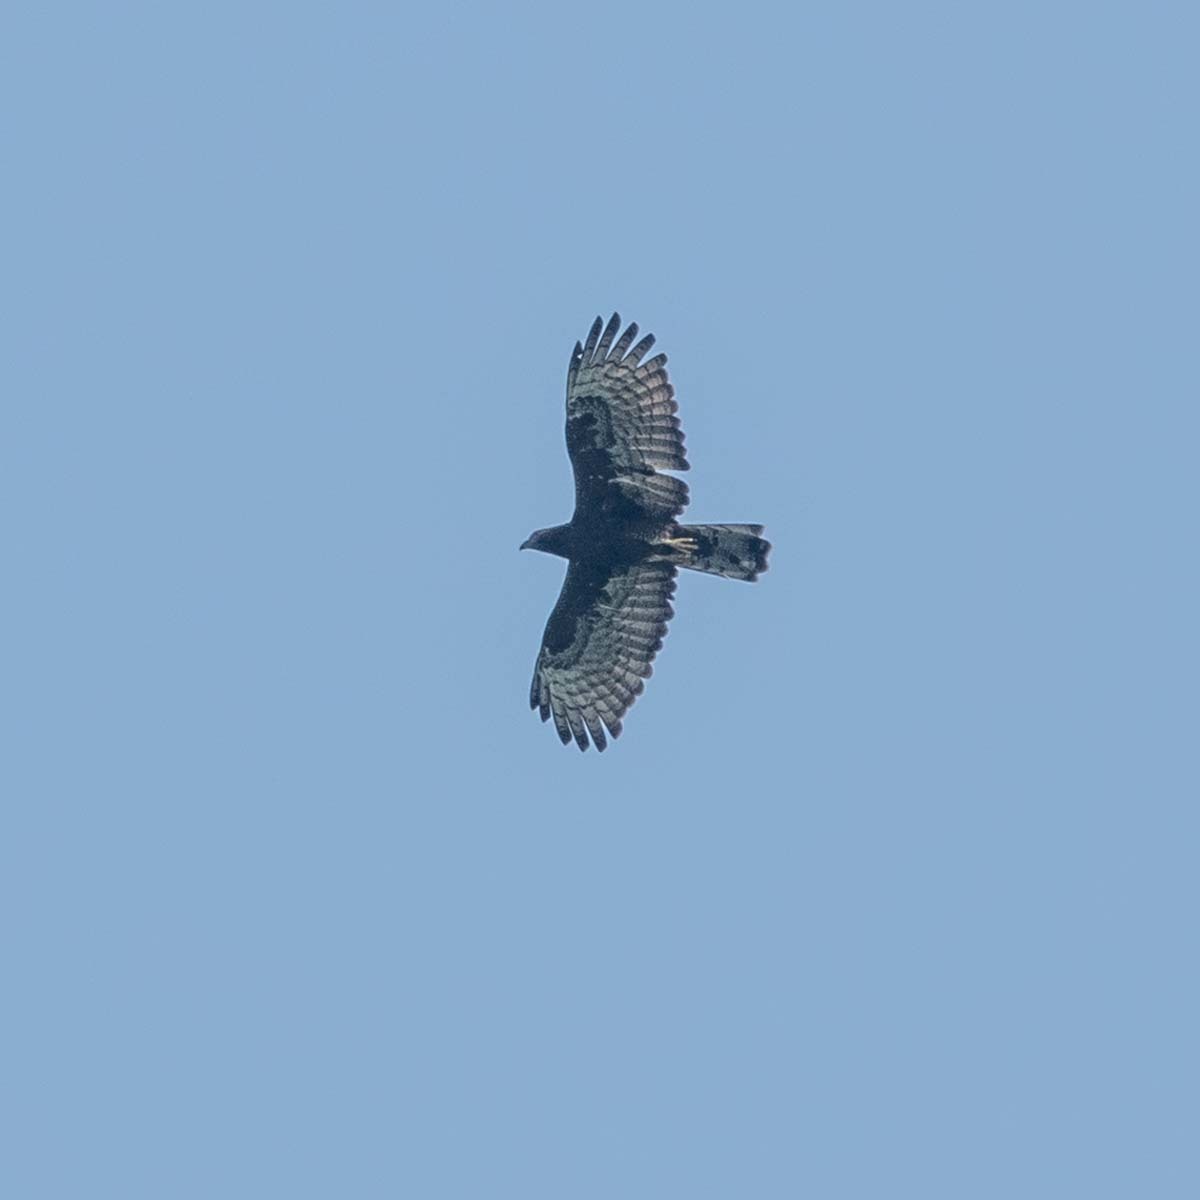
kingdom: Animalia
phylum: Chordata
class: Aves
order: Accipitriformes
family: Accipitridae
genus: Pernis
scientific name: Pernis ptilorhynchus
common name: Crested honey buzzard
